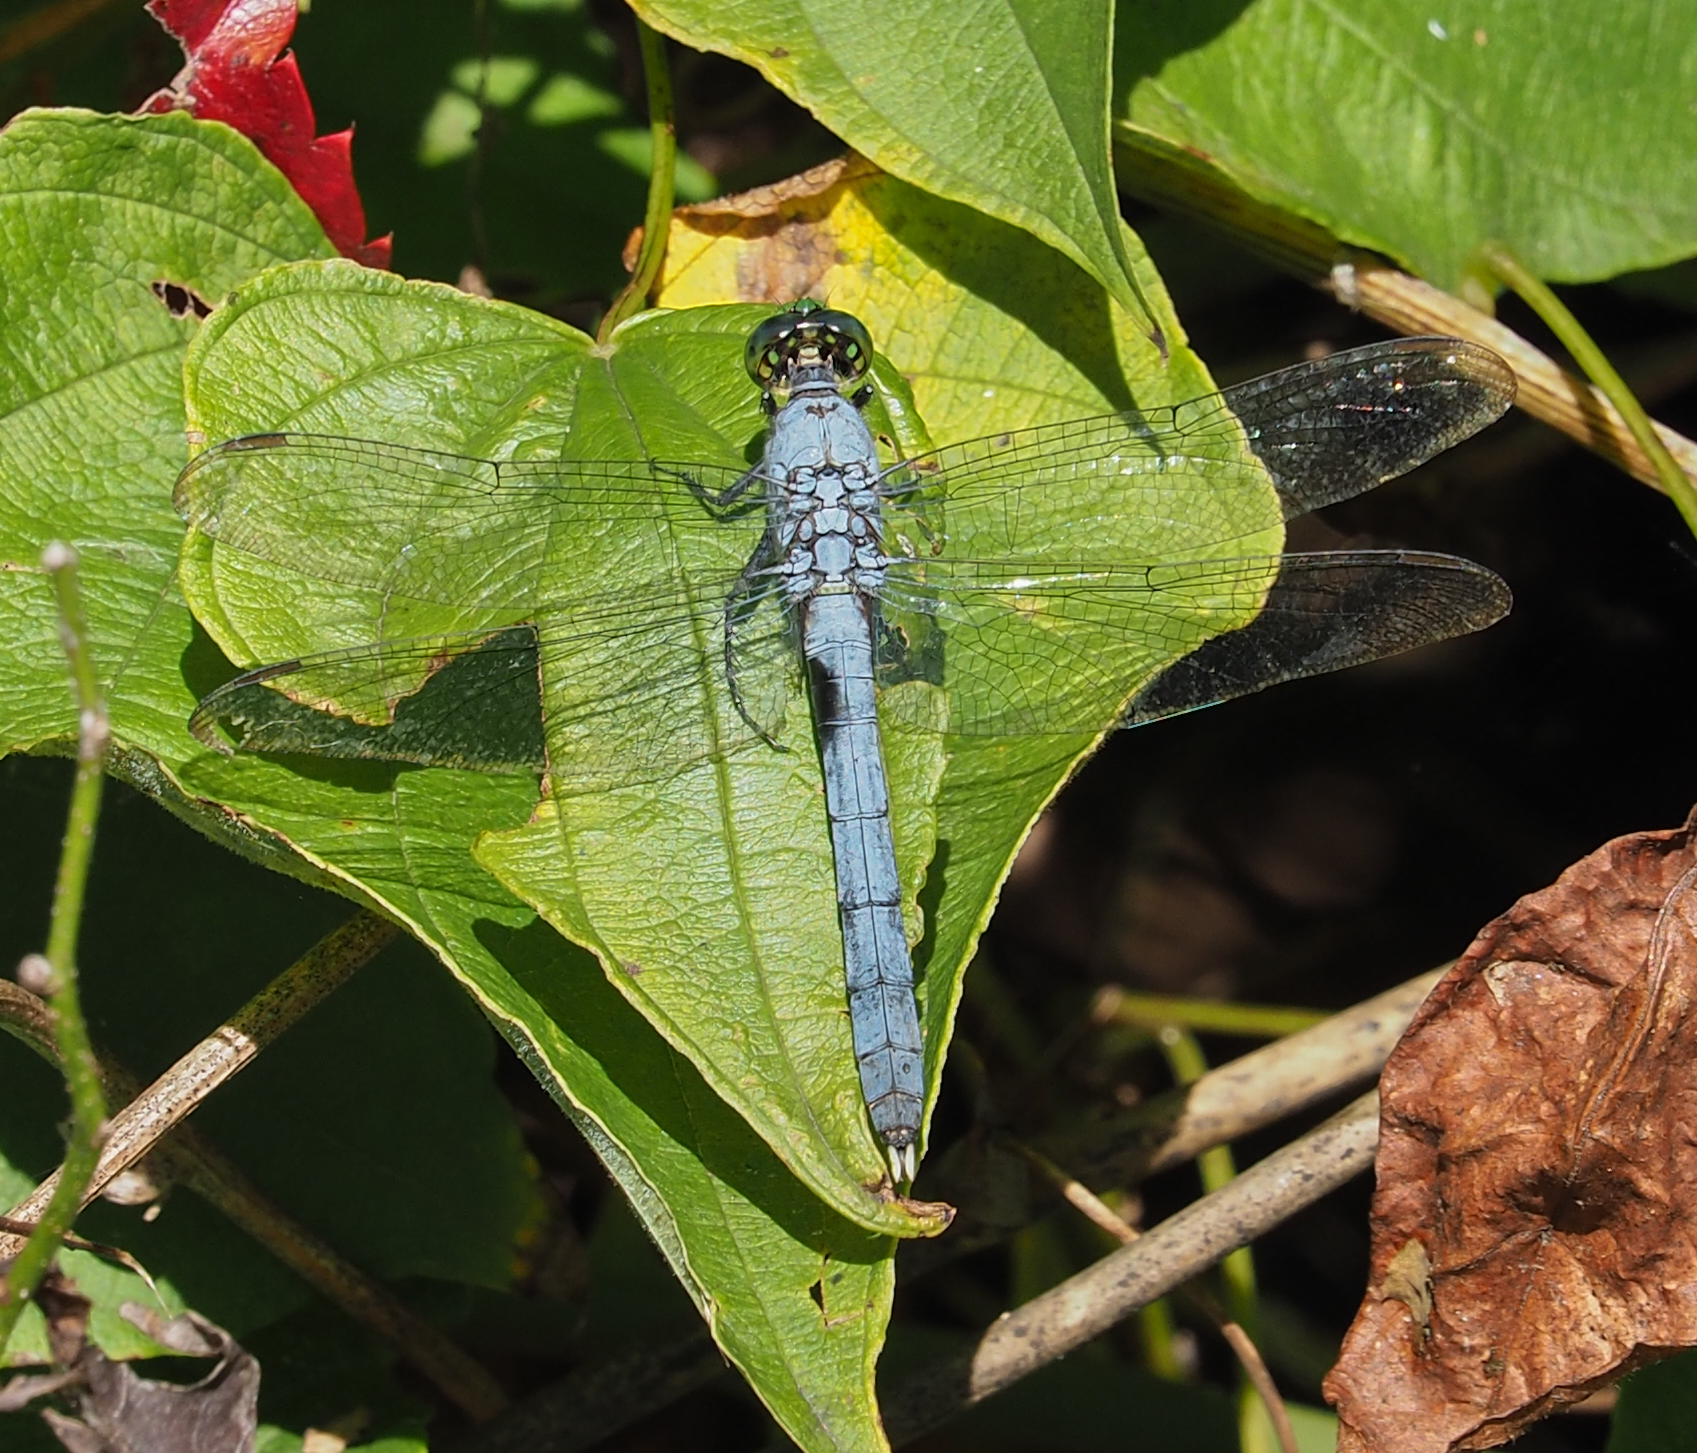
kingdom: Animalia
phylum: Arthropoda
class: Insecta
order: Odonata
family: Libellulidae
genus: Erythemis
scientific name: Erythemis simplicicollis
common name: Eastern pondhawk
